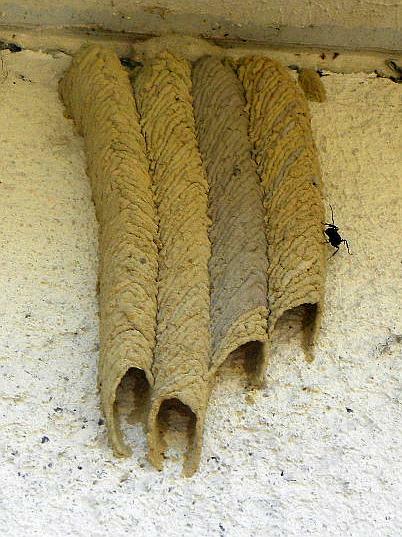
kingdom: Animalia
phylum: Arthropoda
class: Insecta
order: Hymenoptera
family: Crabronidae
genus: Trypoxylon
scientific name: Trypoxylon politum
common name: Organ-pipe mud-dauber wasp
